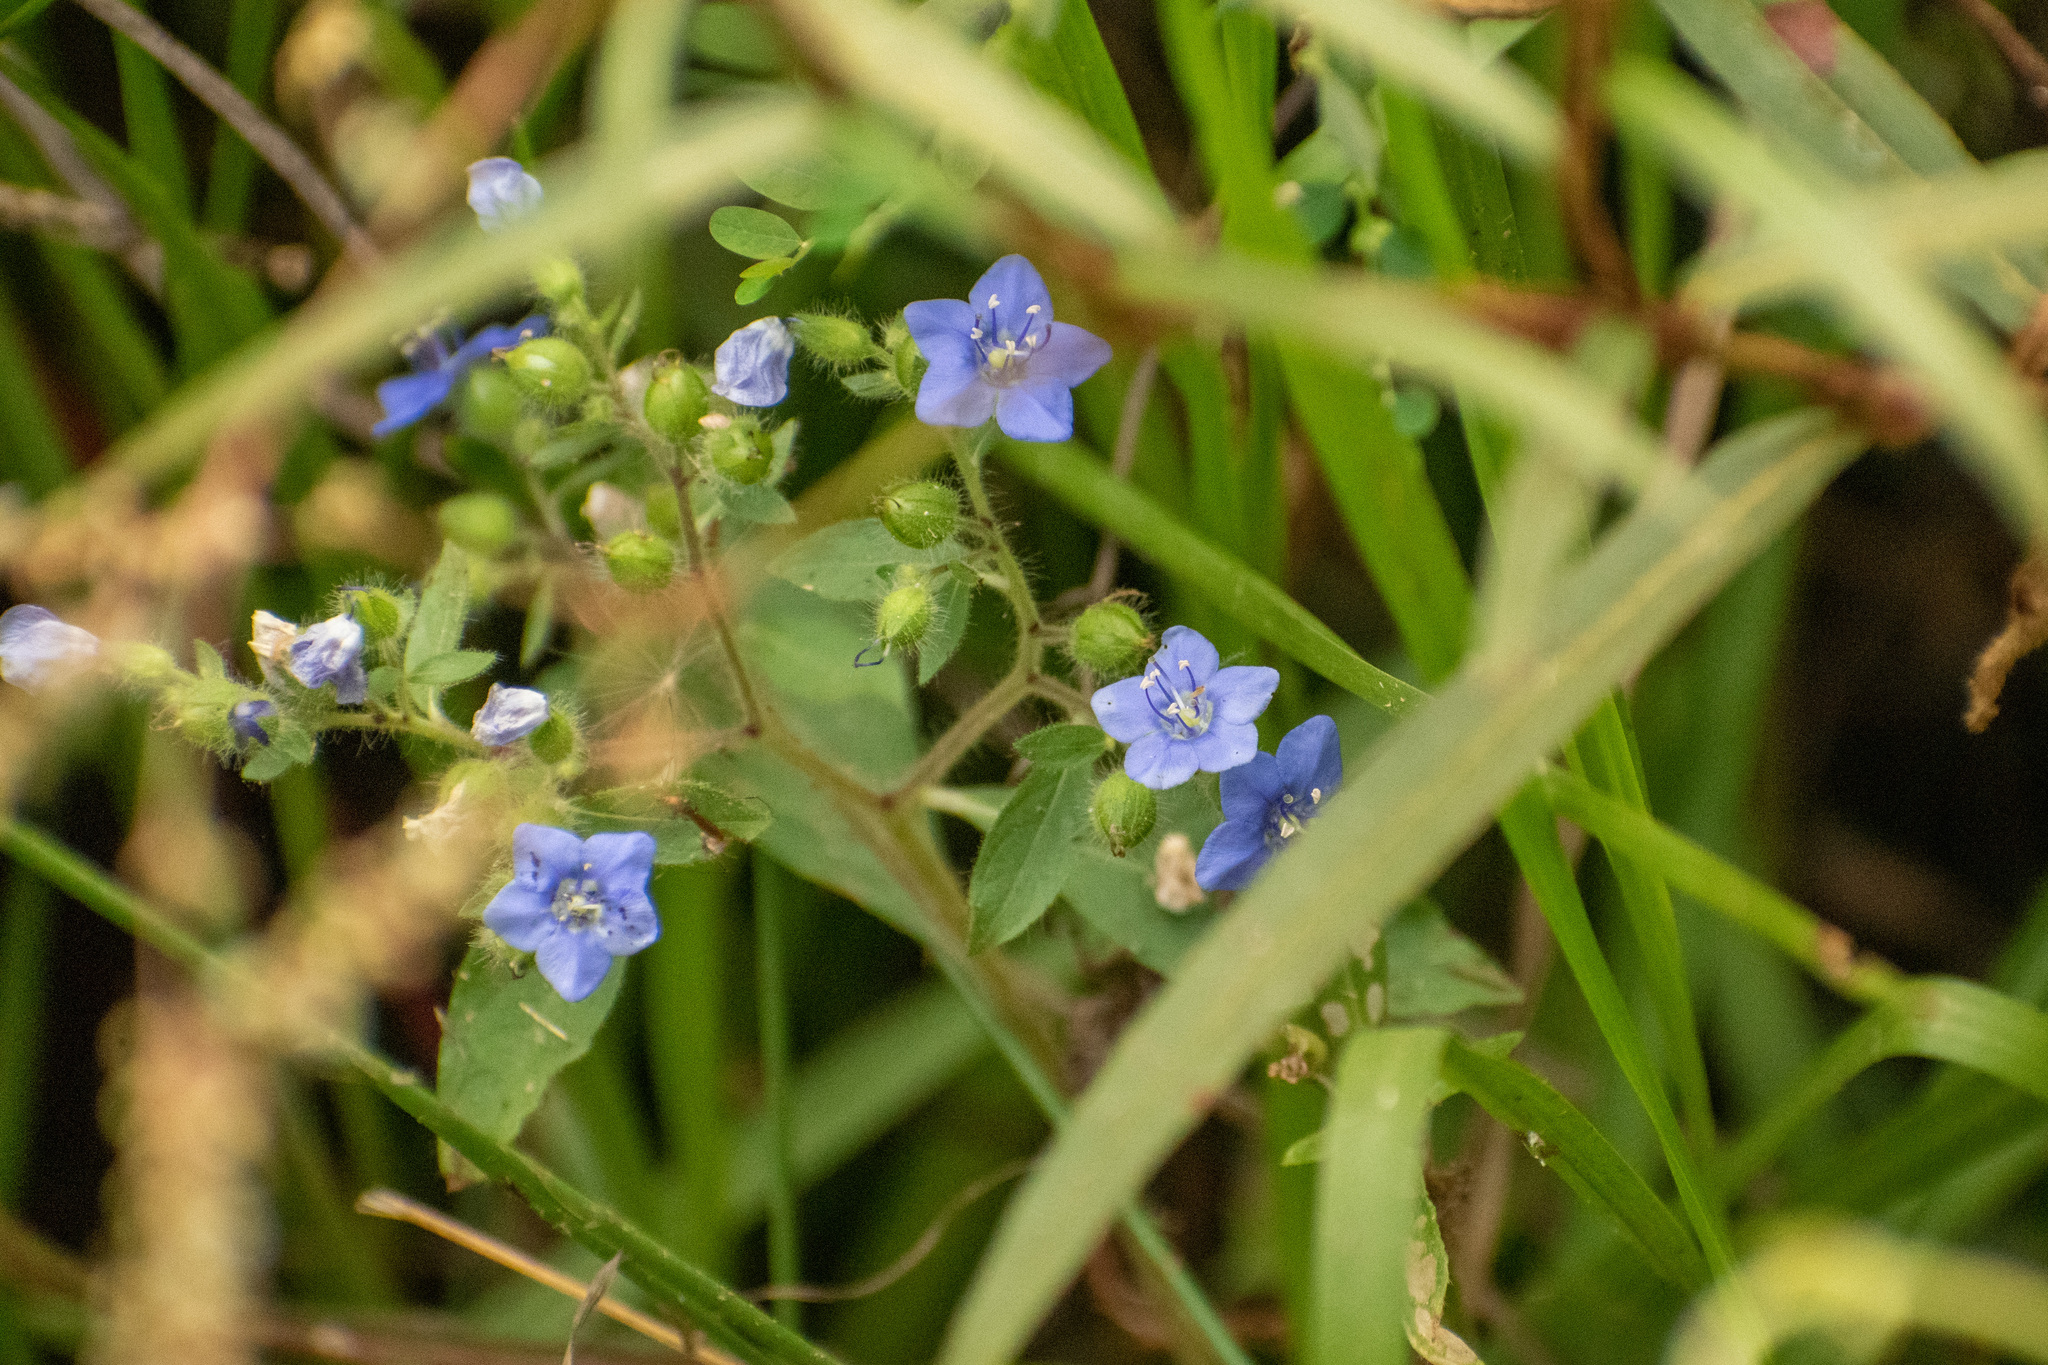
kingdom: Plantae
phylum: Tracheophyta
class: Magnoliopsida
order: Solanales
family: Hydroleaceae
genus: Hydrolea
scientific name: Hydrolea spinosa
